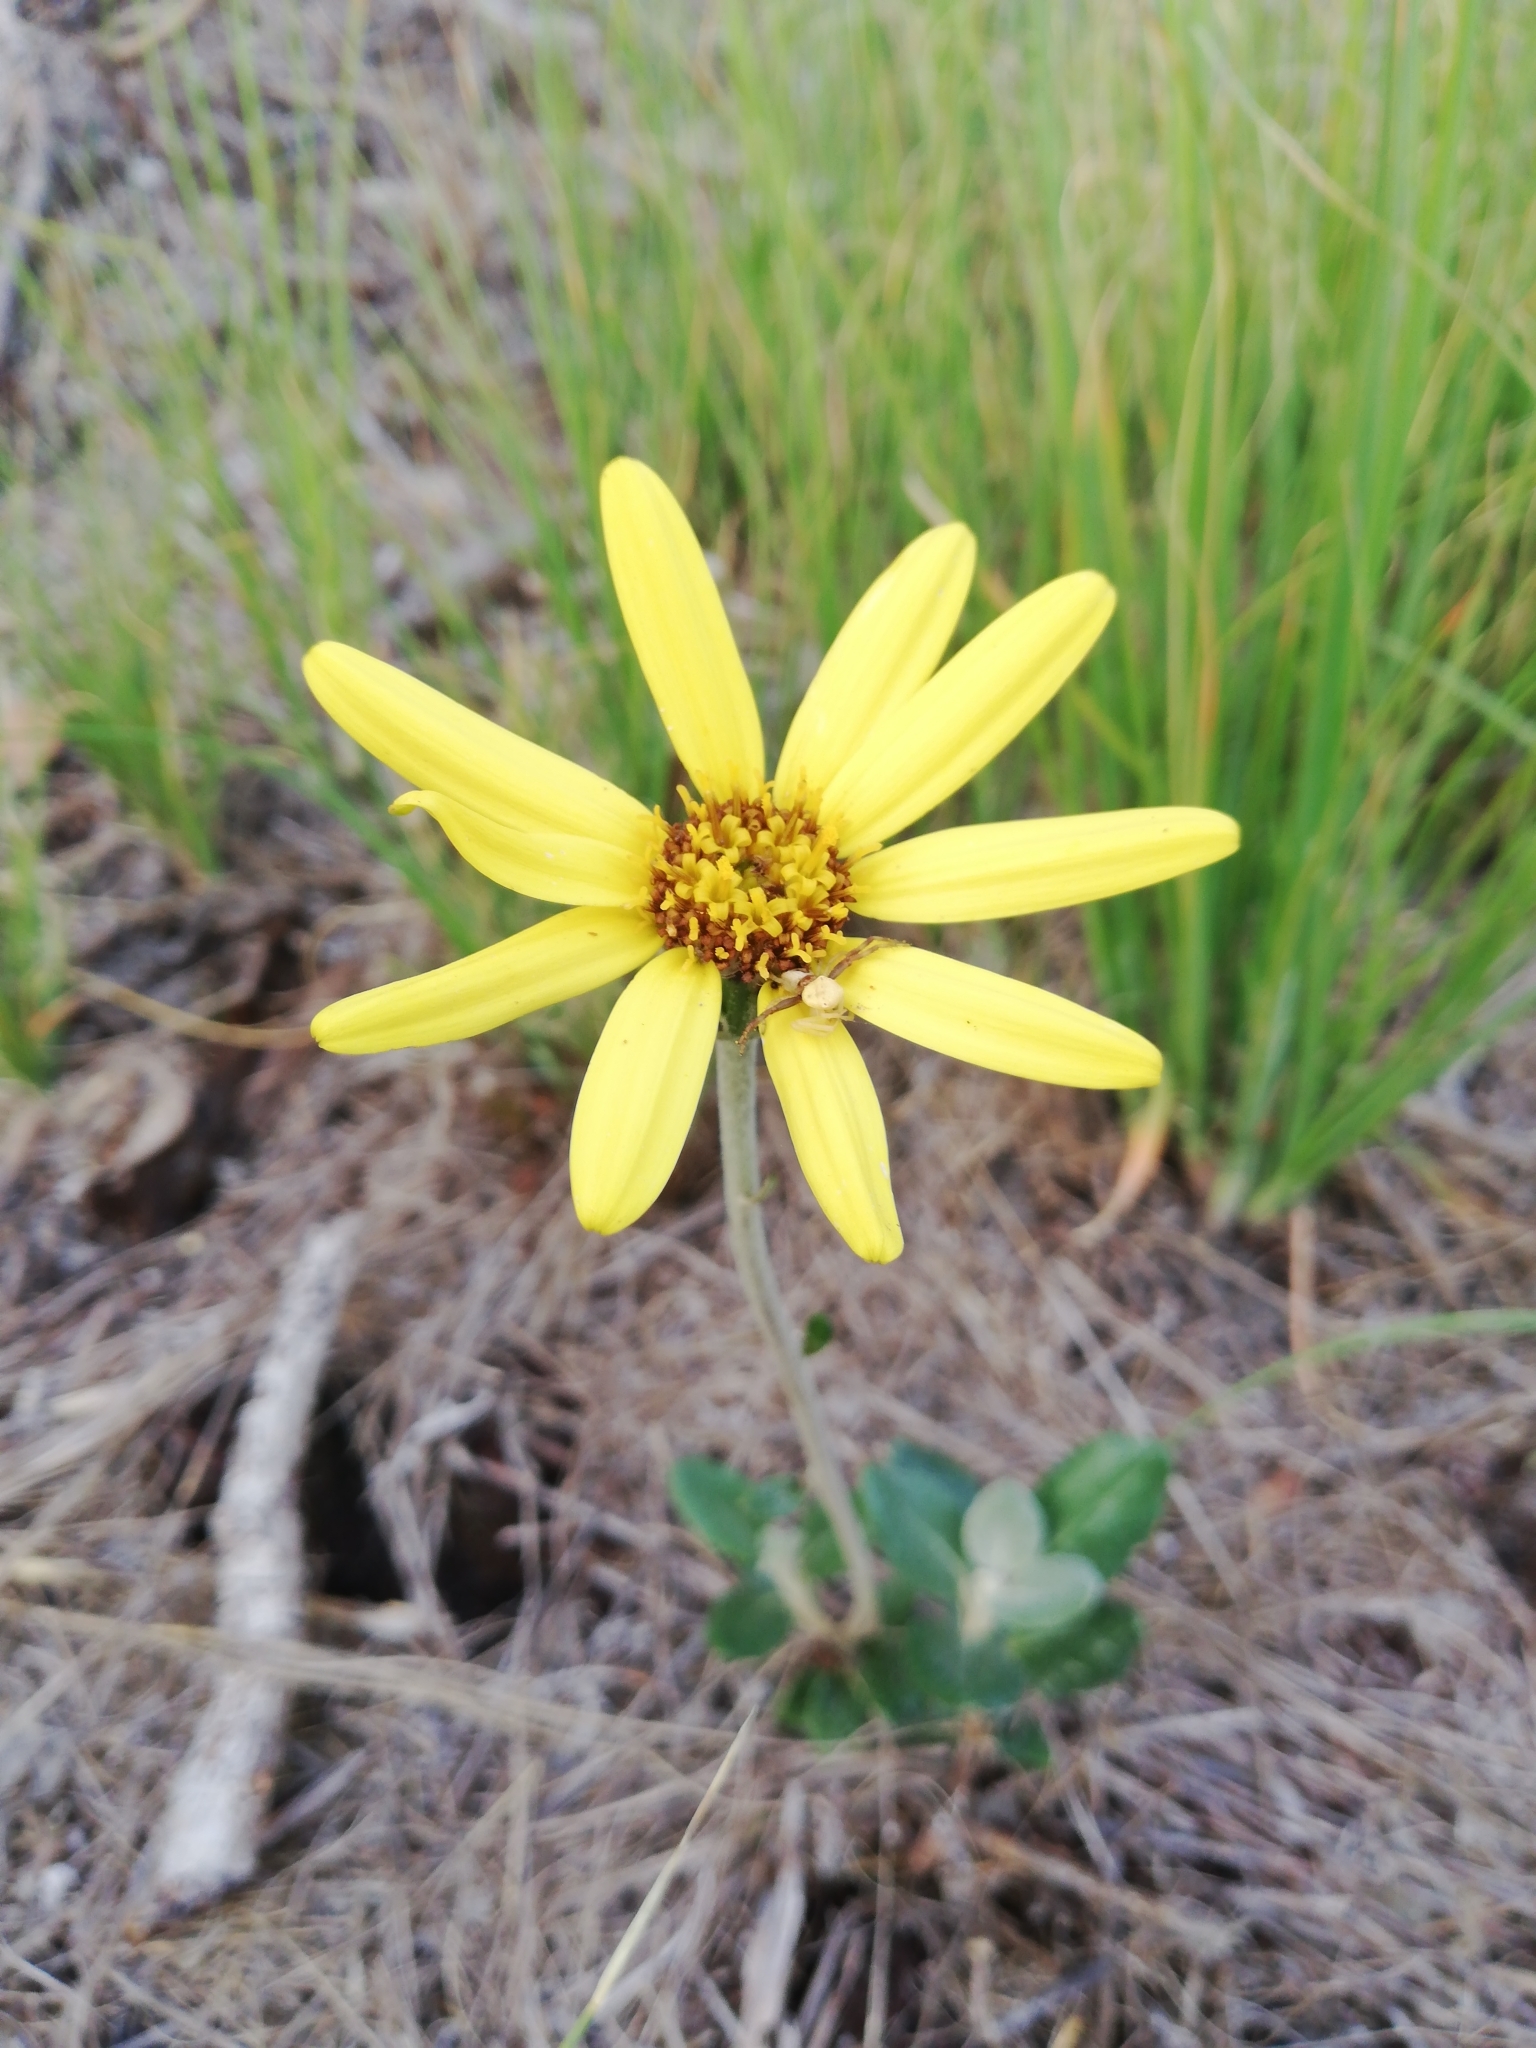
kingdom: Plantae
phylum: Tracheophyta
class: Magnoliopsida
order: Asterales
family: Asteraceae
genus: Capelio
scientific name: Capelio tabularis
